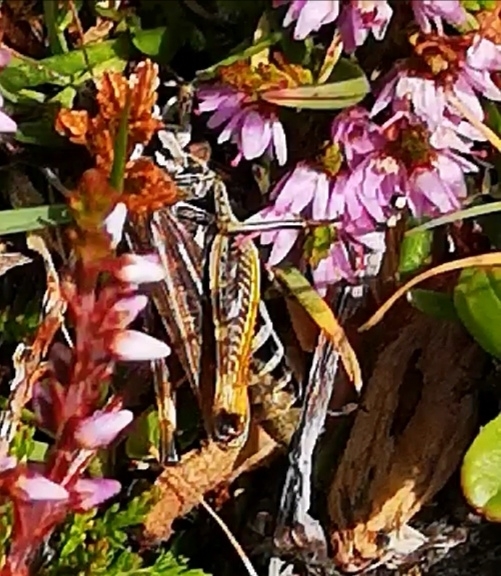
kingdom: Animalia
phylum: Arthropoda
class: Insecta
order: Orthoptera
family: Acrididae
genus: Gomphocerus
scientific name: Gomphocerus sibiricus
